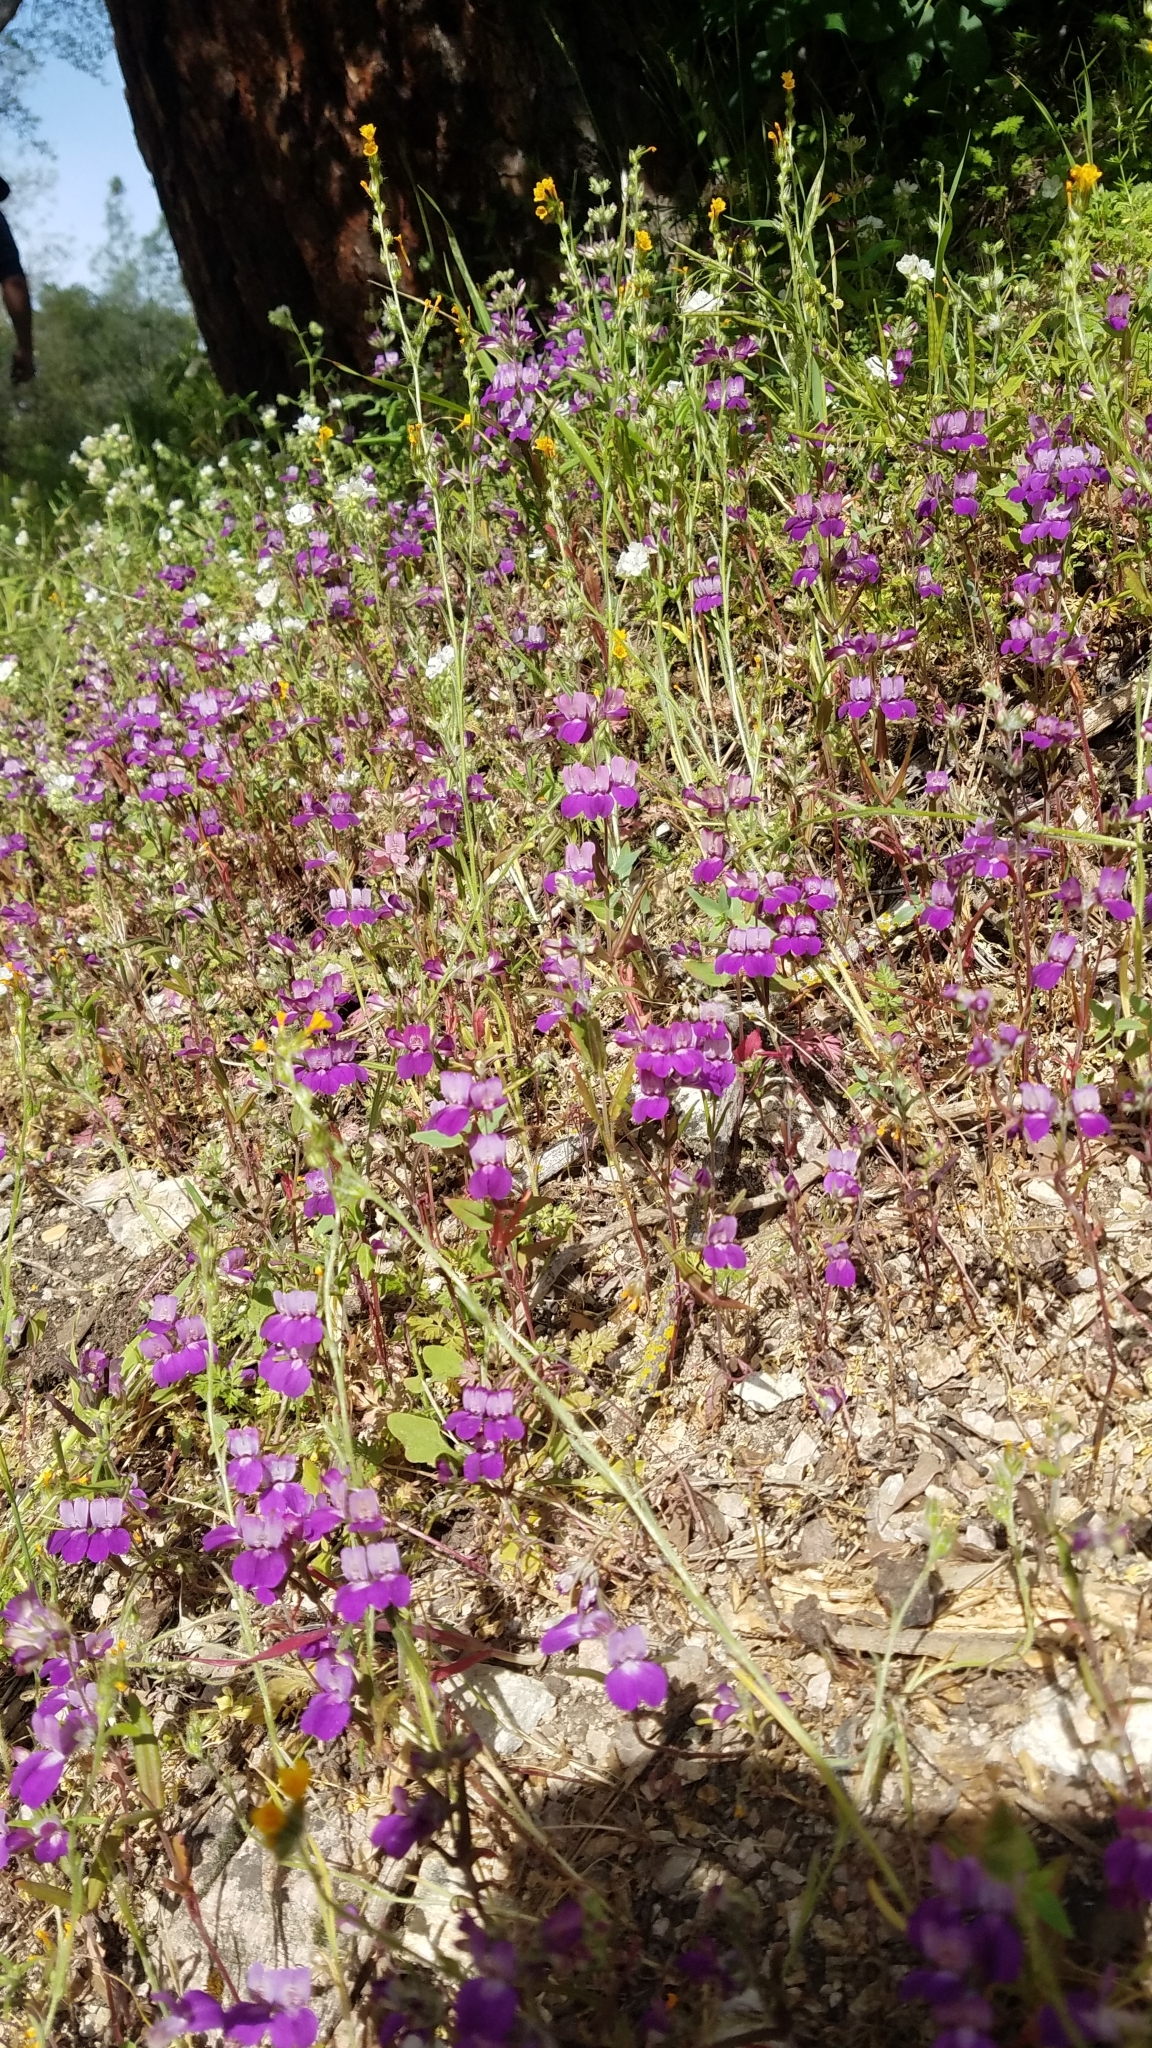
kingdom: Plantae
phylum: Tracheophyta
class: Magnoliopsida
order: Lamiales
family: Plantaginaceae
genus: Collinsia
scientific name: Collinsia heterophylla
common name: Chinese-houses
